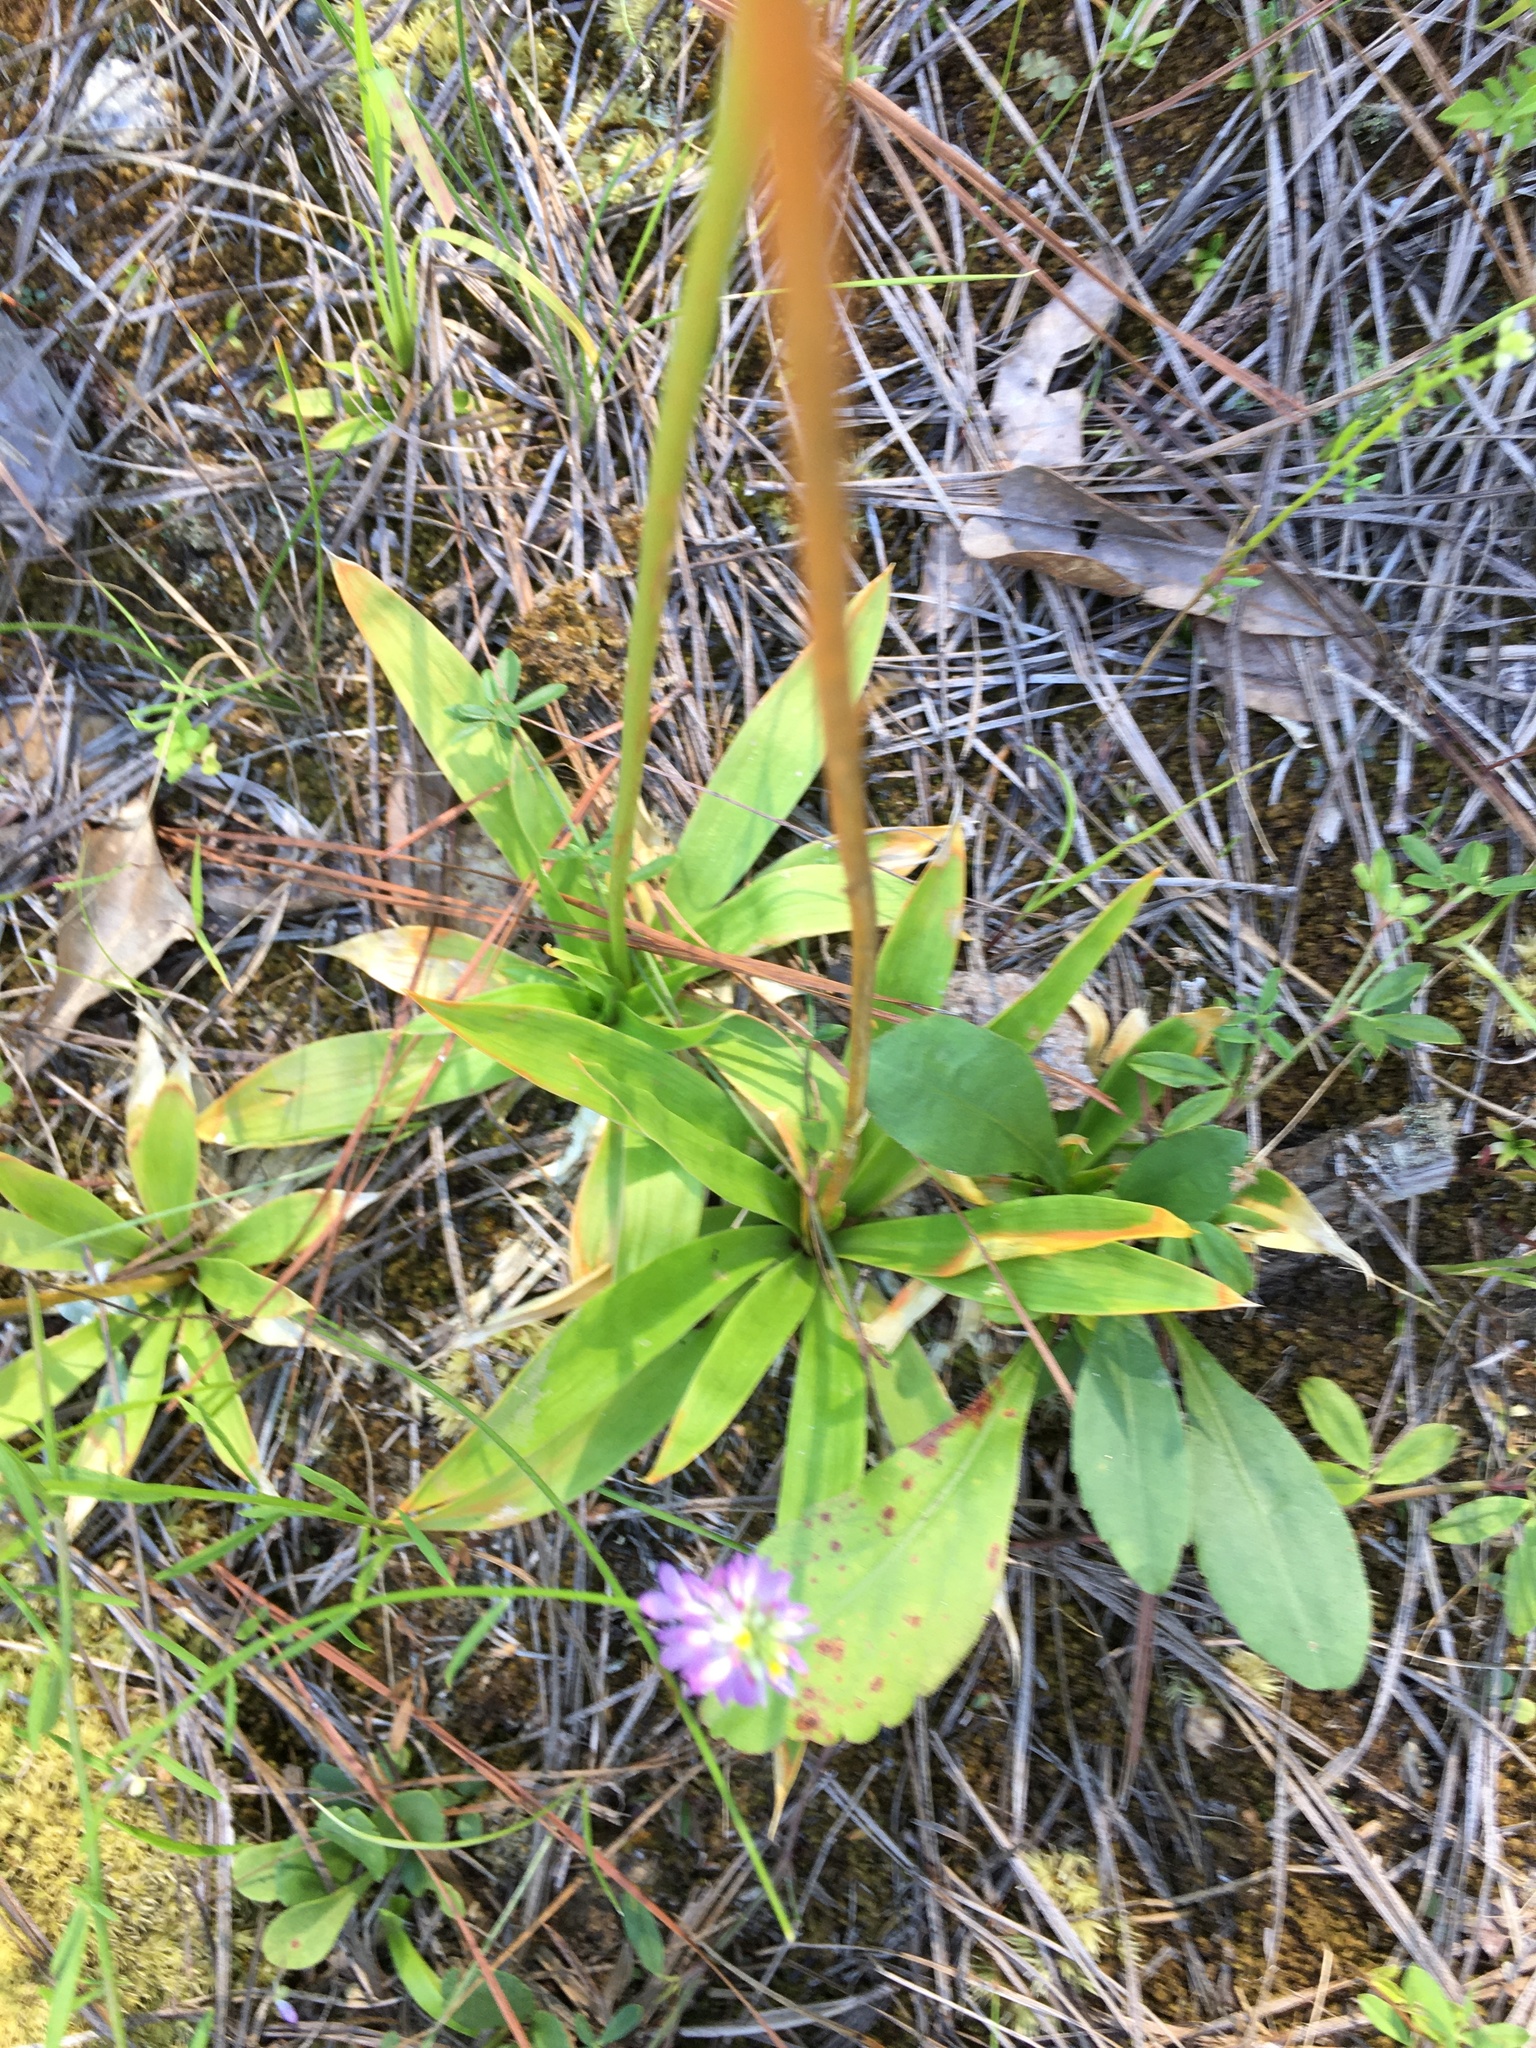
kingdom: Plantae
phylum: Tracheophyta
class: Liliopsida
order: Dioscoreales
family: Nartheciaceae
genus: Aletris
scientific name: Aletris farinosa
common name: Colicroot
